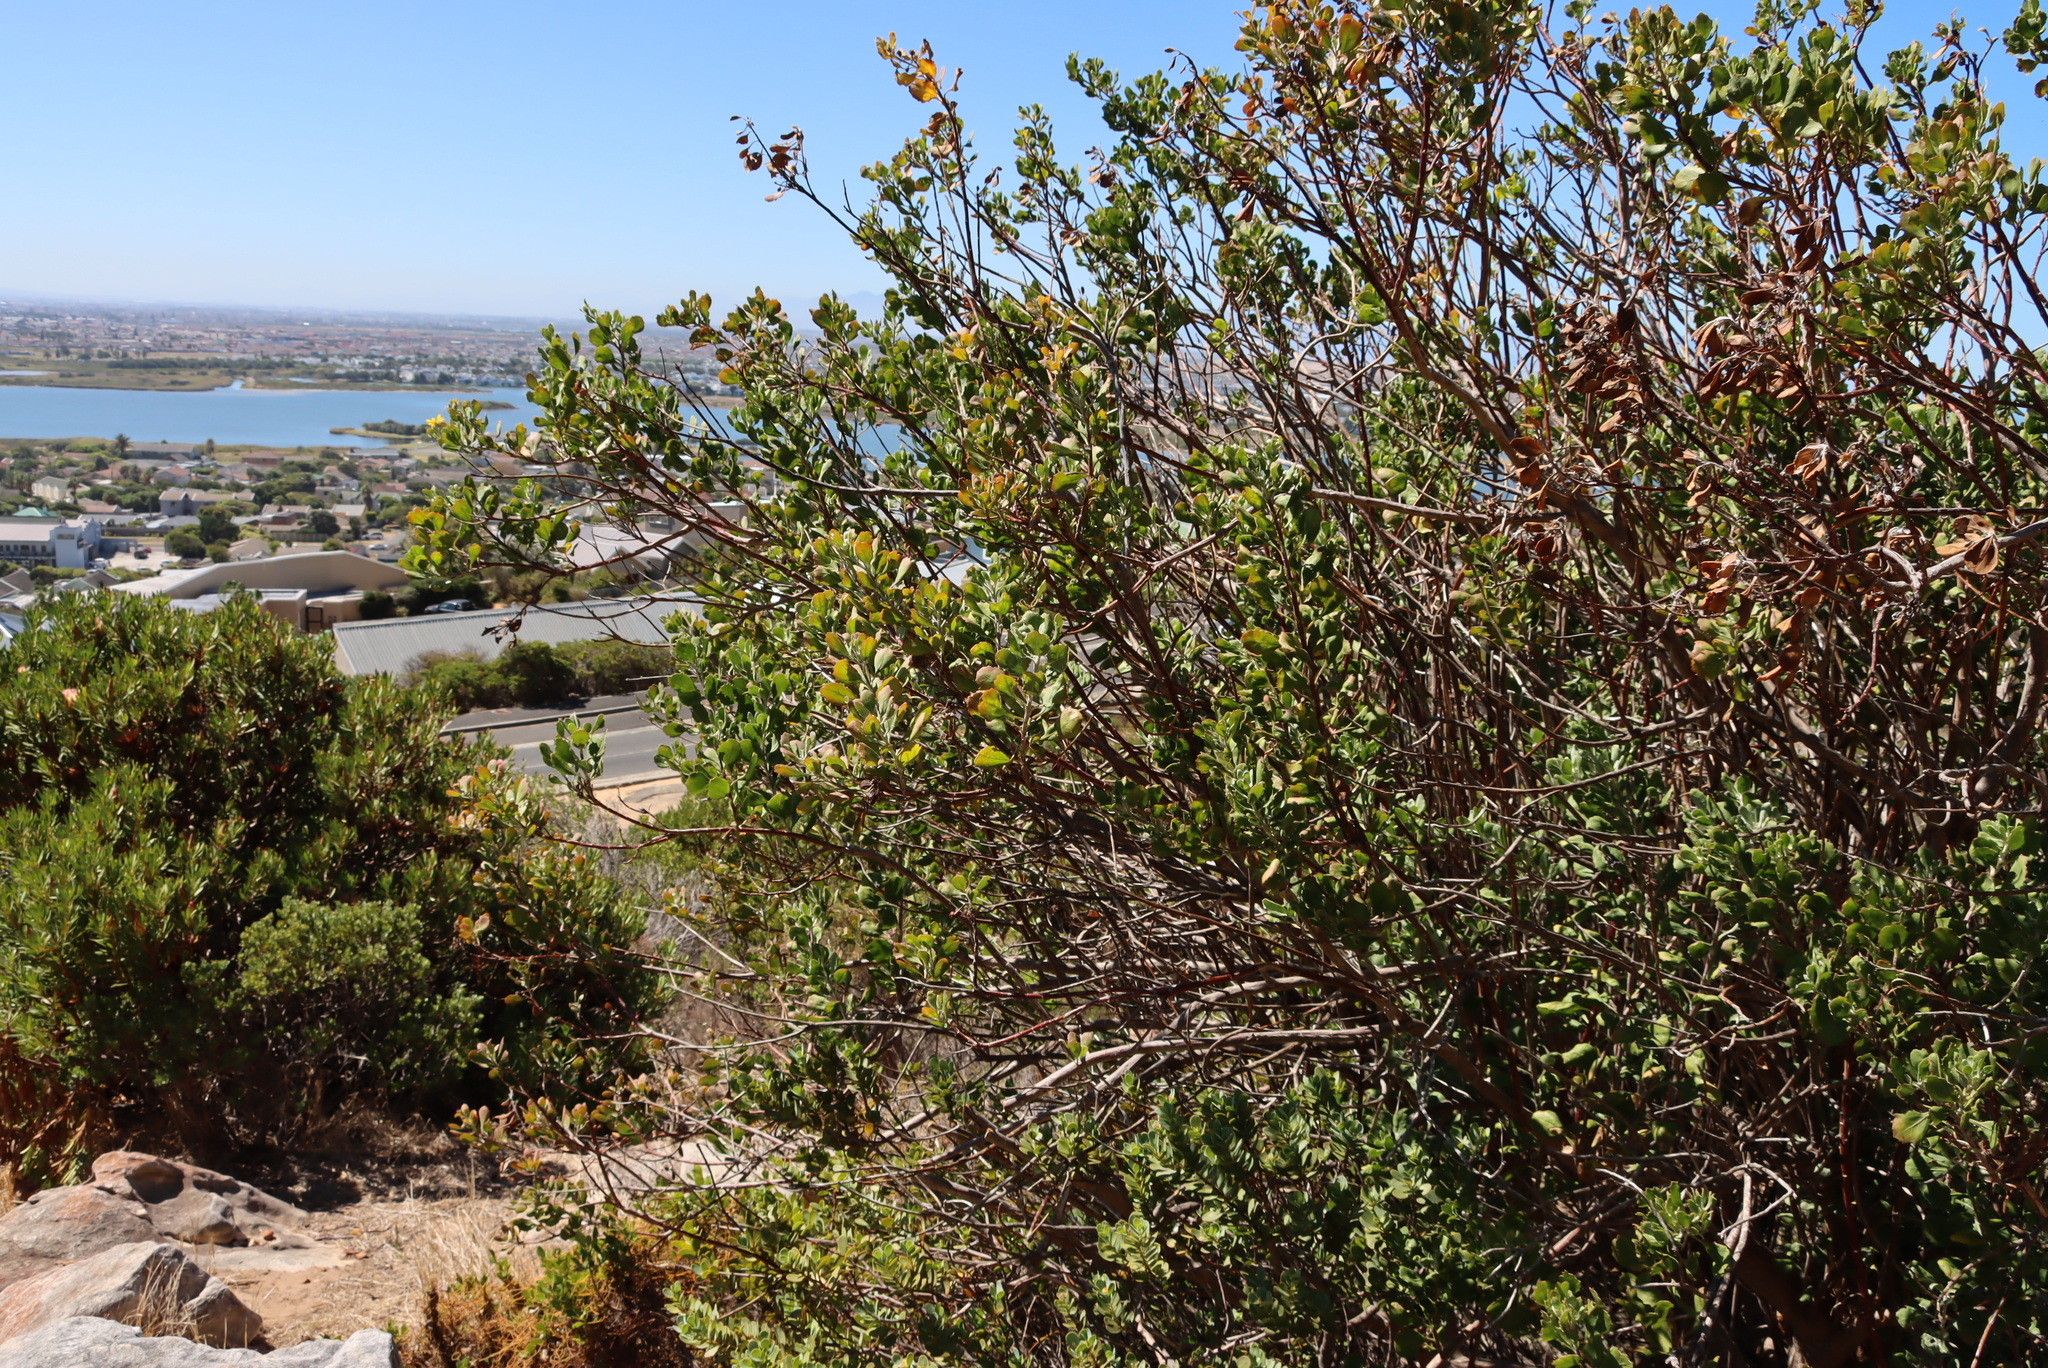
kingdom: Plantae
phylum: Tracheophyta
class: Magnoliopsida
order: Asterales
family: Asteraceae
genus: Osteospermum
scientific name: Osteospermum moniliferum
